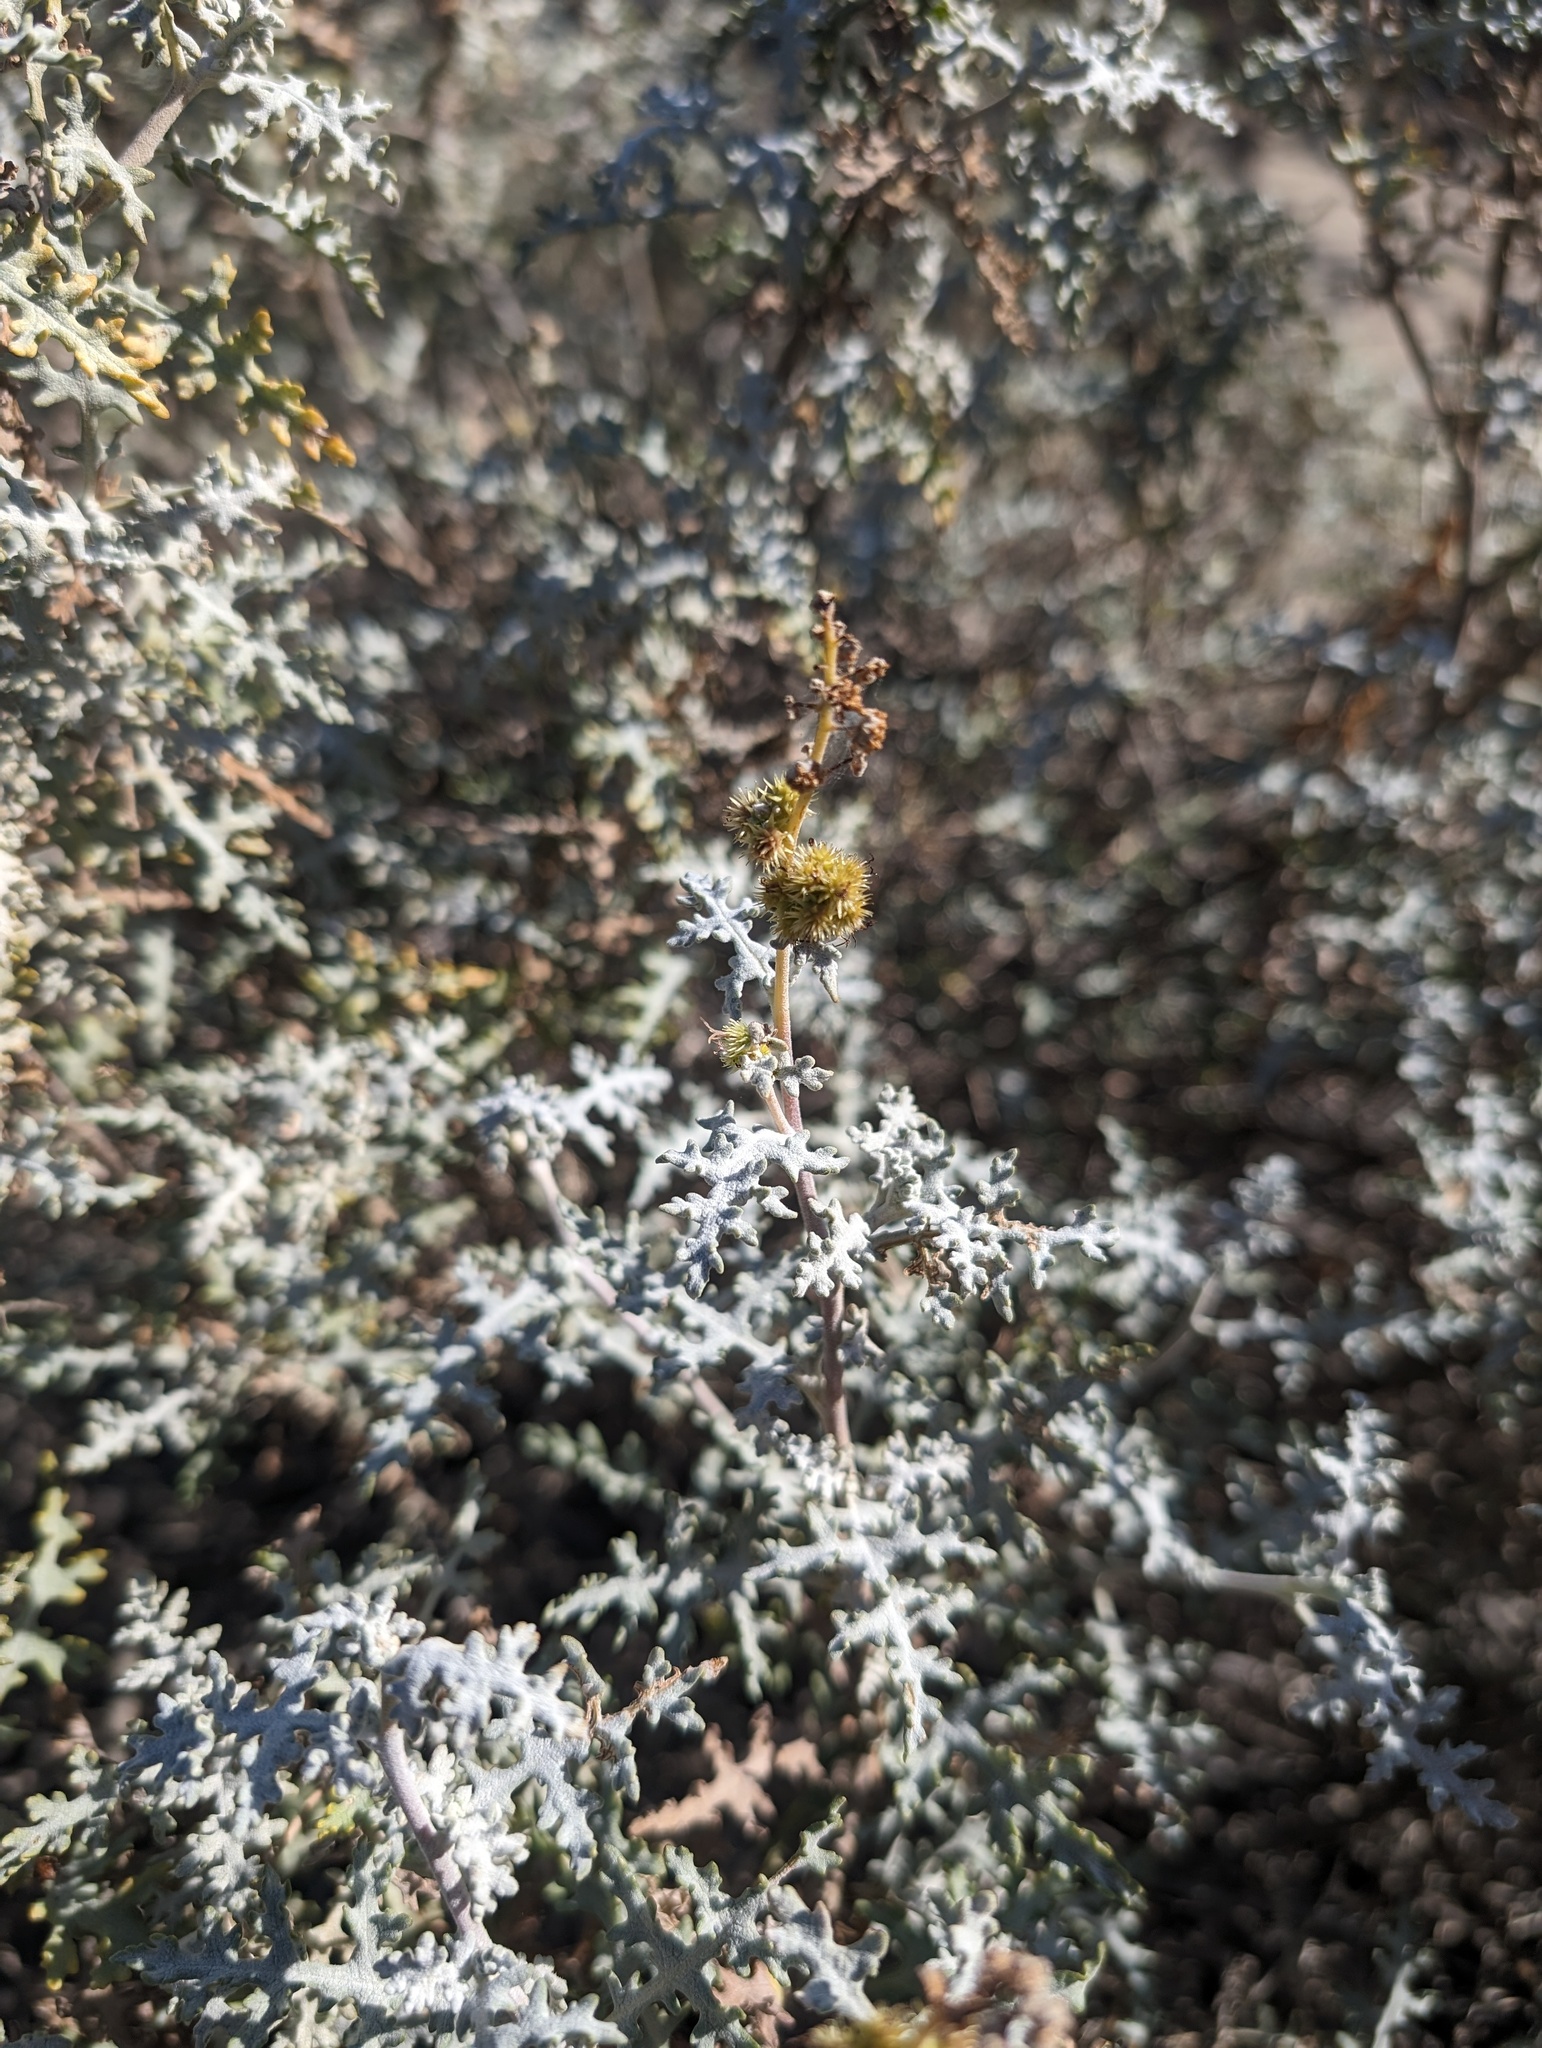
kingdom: Plantae
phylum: Tracheophyta
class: Magnoliopsida
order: Asterales
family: Asteraceae
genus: Ambrosia
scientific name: Ambrosia magdalenae
